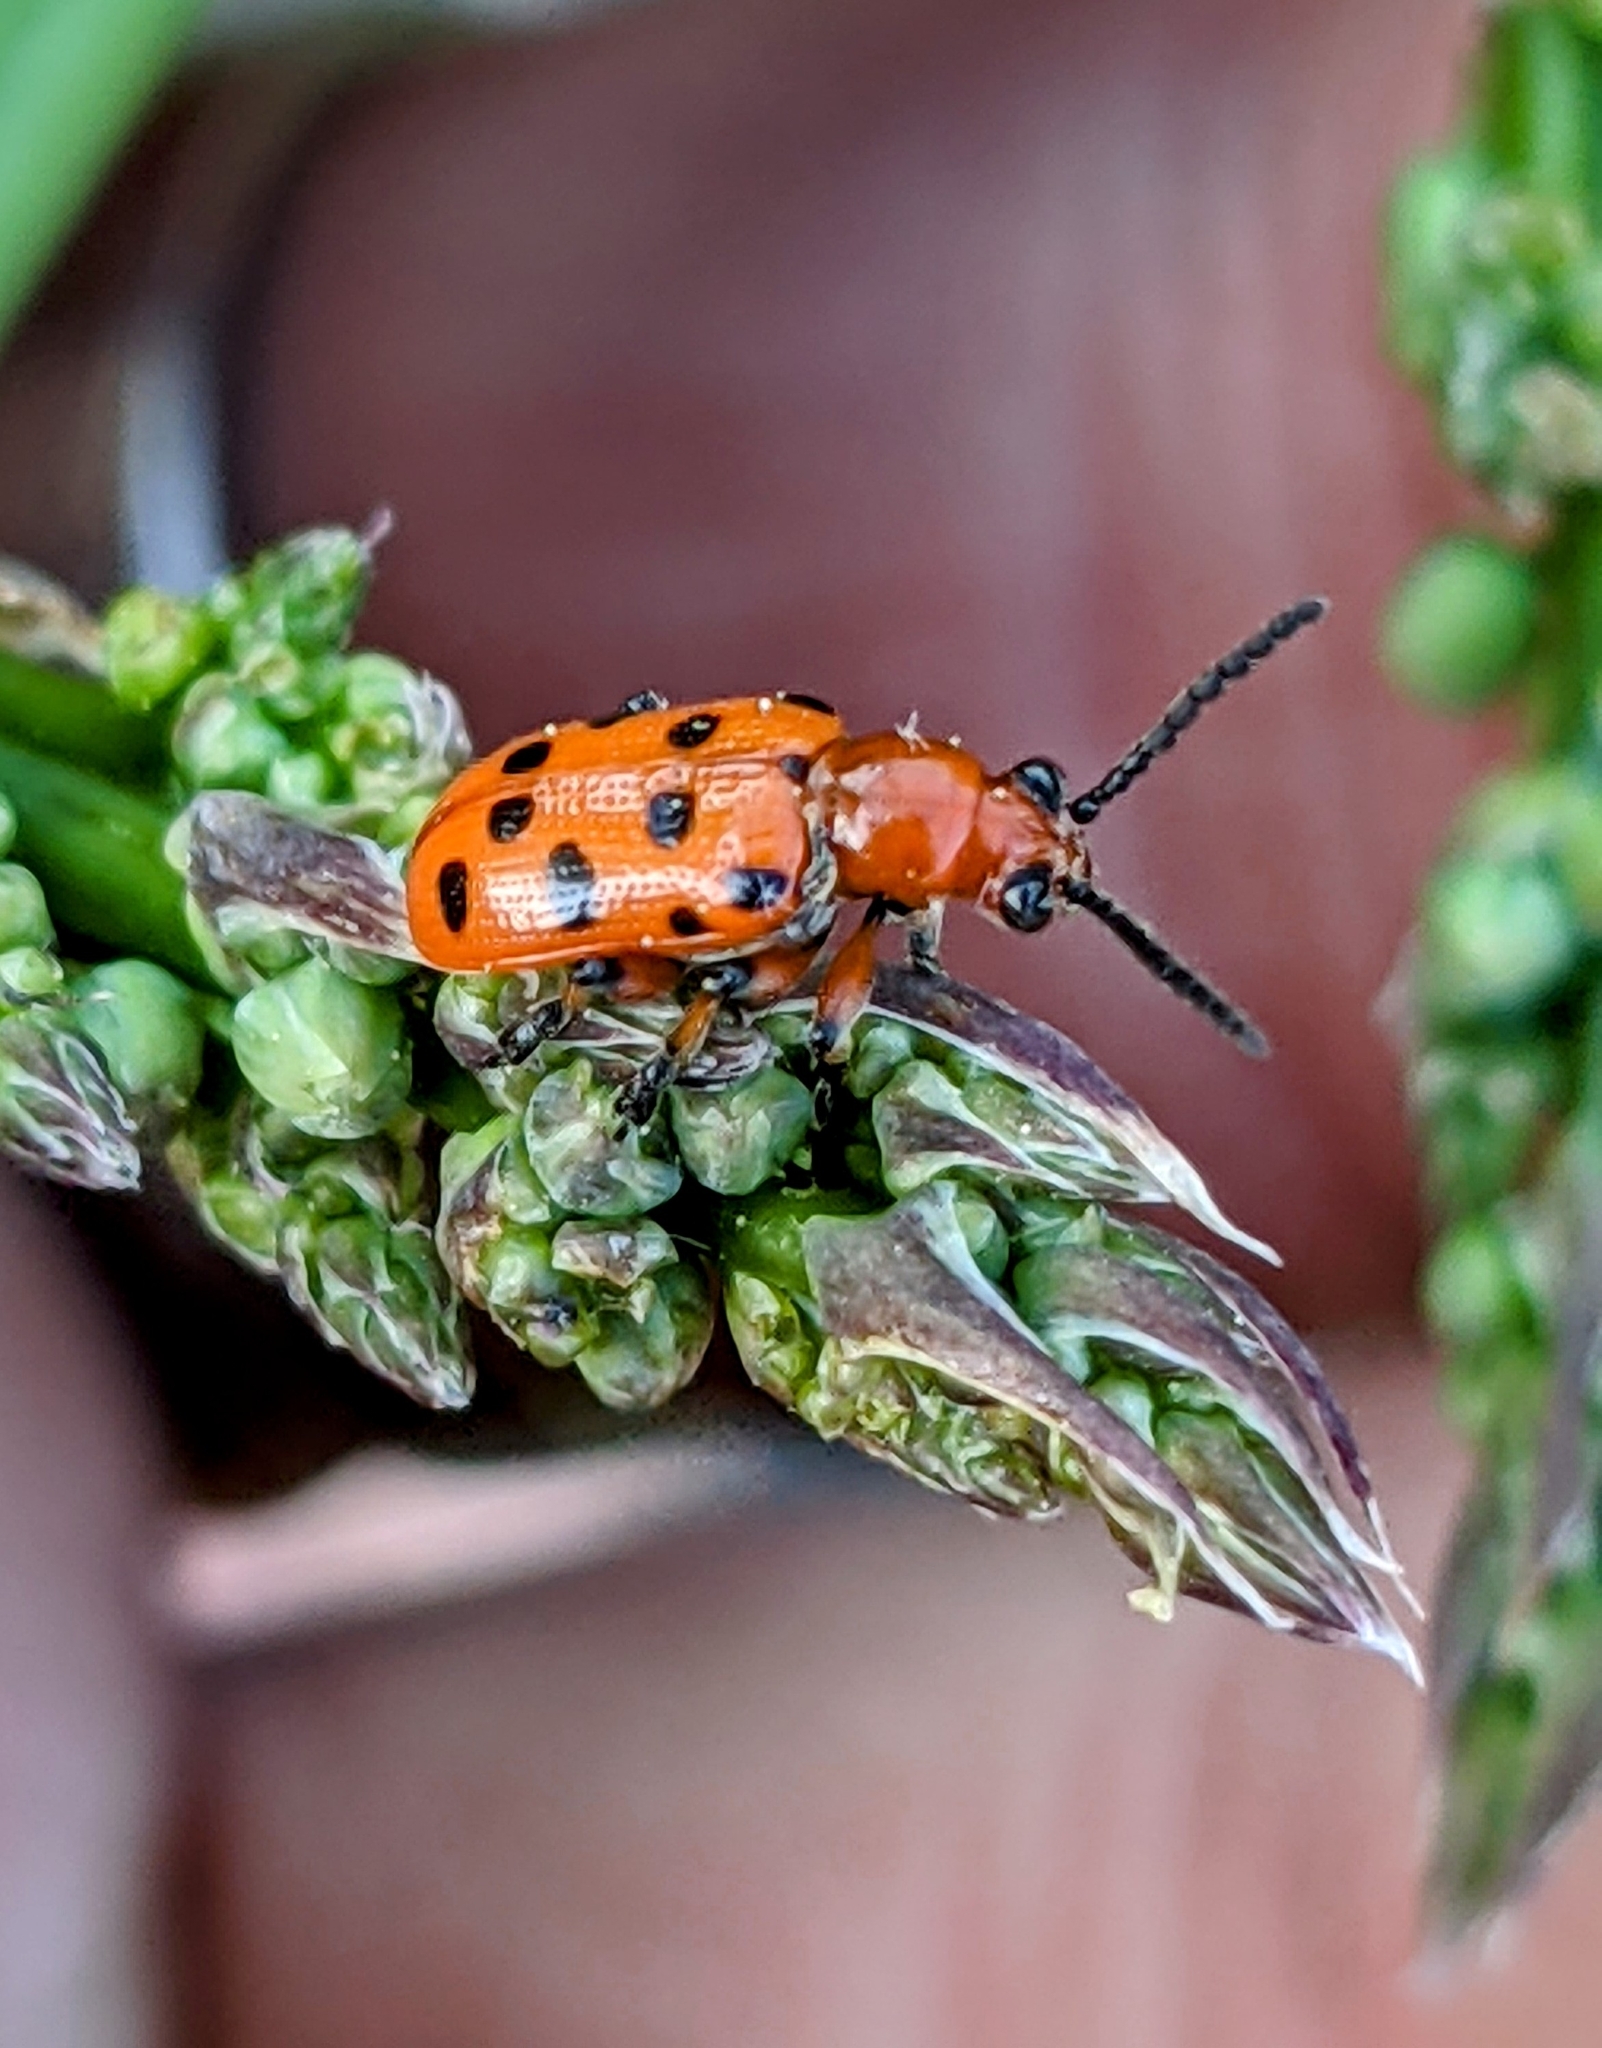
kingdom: Animalia
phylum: Arthropoda
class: Insecta
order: Coleoptera
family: Chrysomelidae
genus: Crioceris
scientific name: Crioceris duodecimpunctata
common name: Twelve-spotted asparagus beetle
